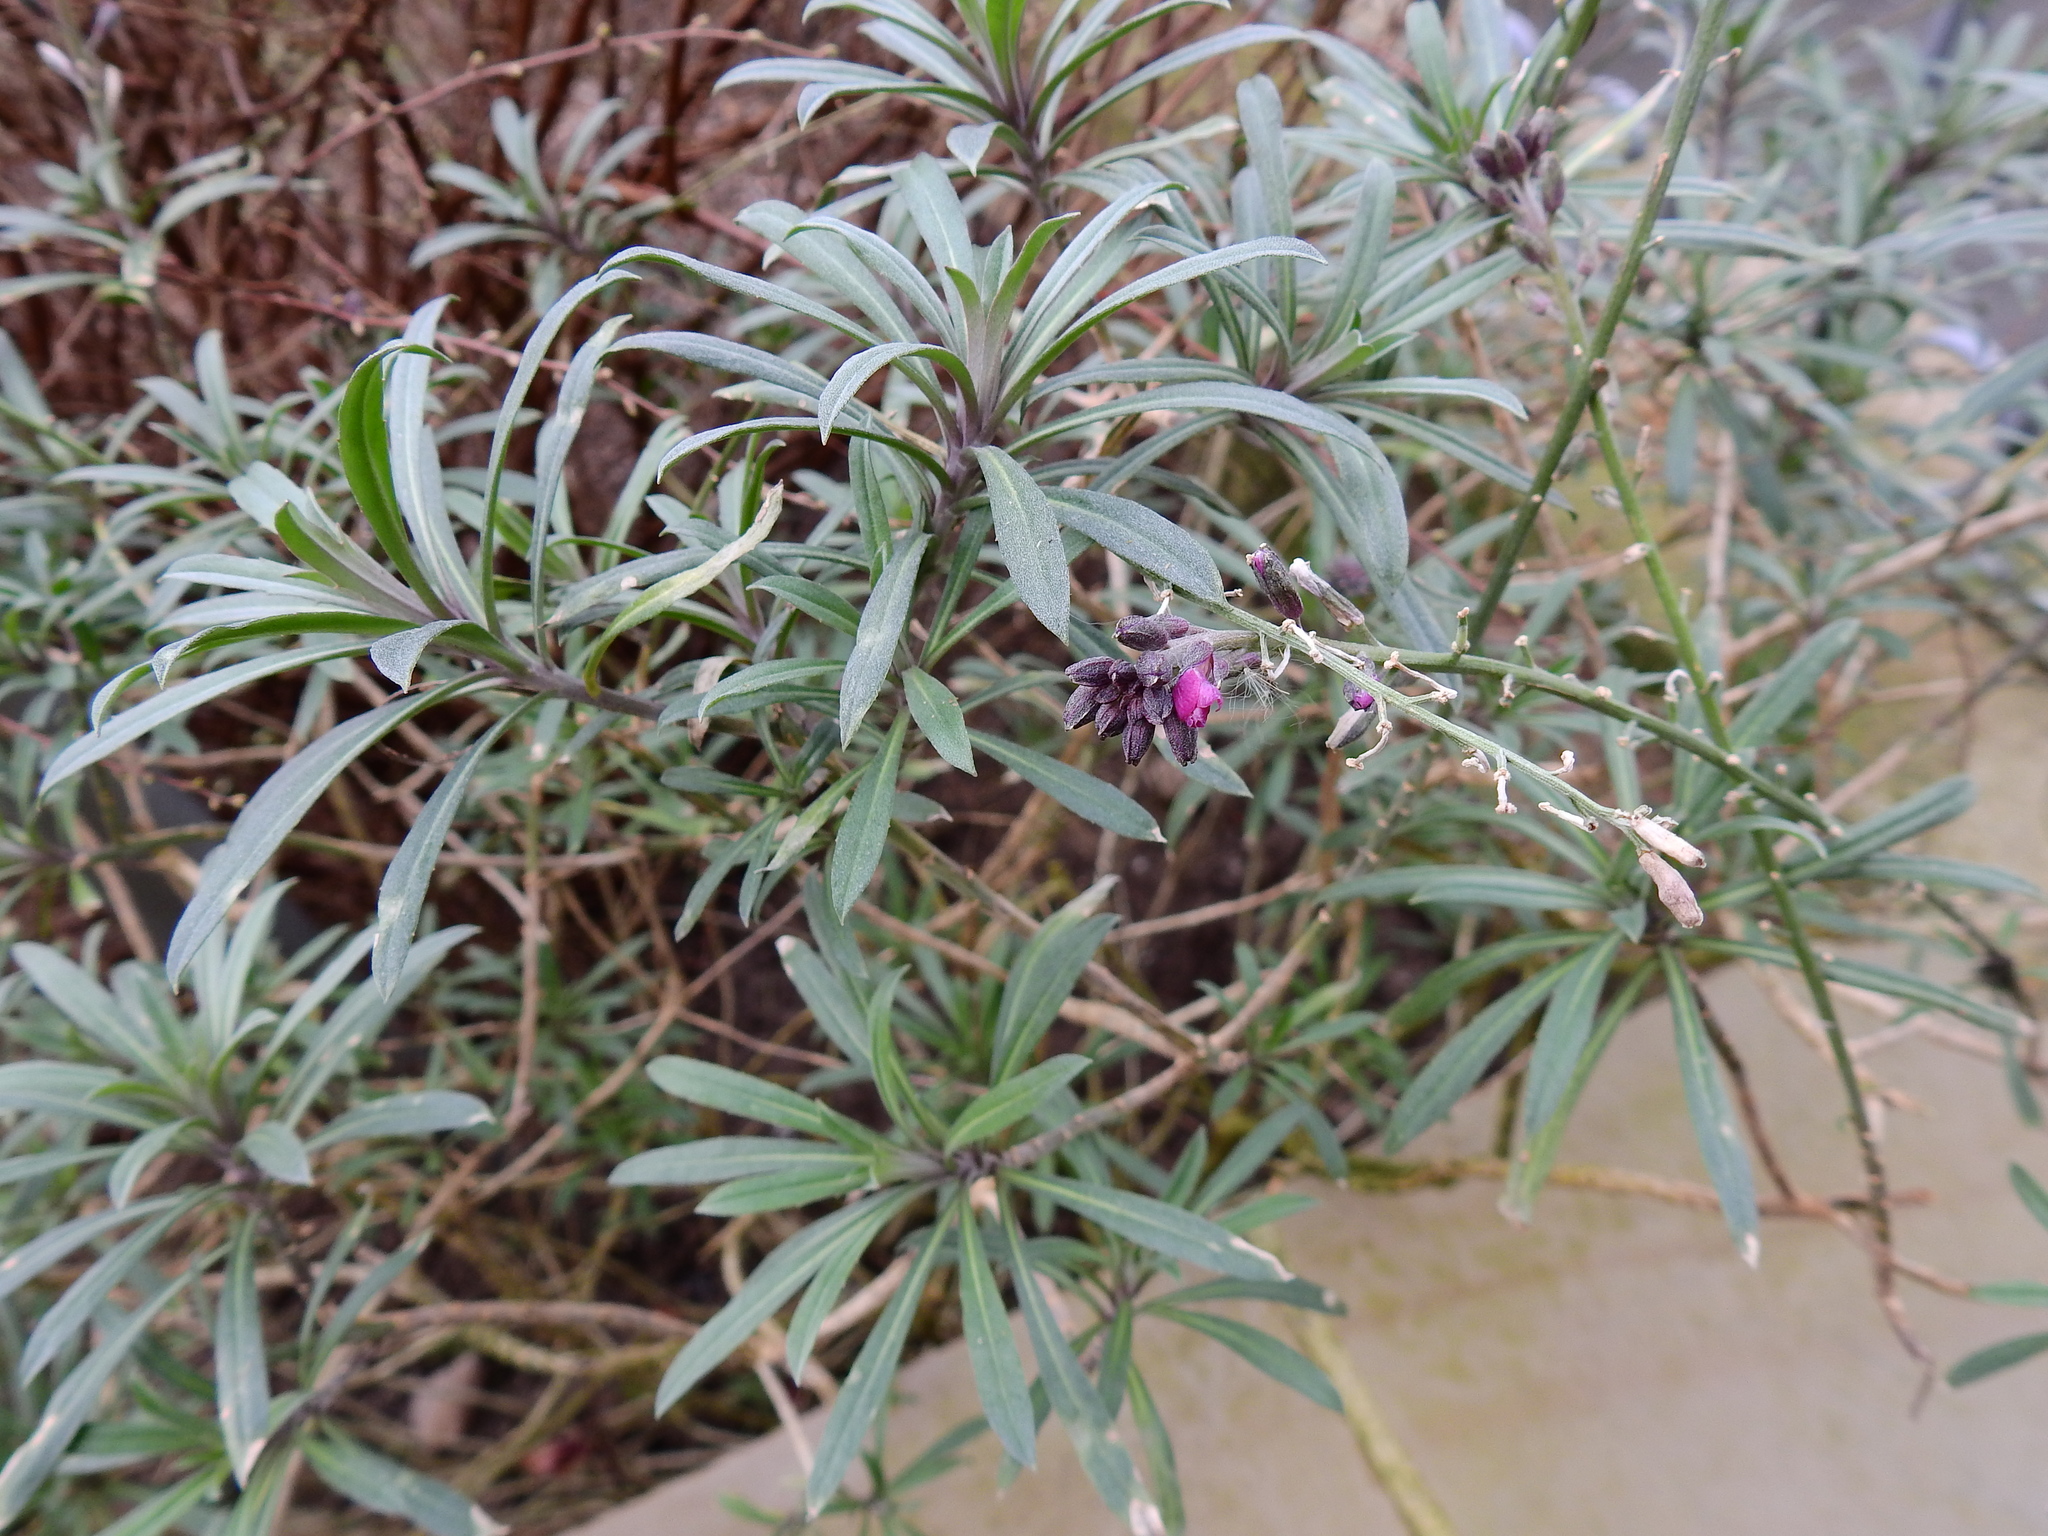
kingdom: Plantae
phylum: Tracheophyta
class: Magnoliopsida
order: Brassicales
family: Brassicaceae
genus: Erysimum
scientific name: Erysimum linifolium
